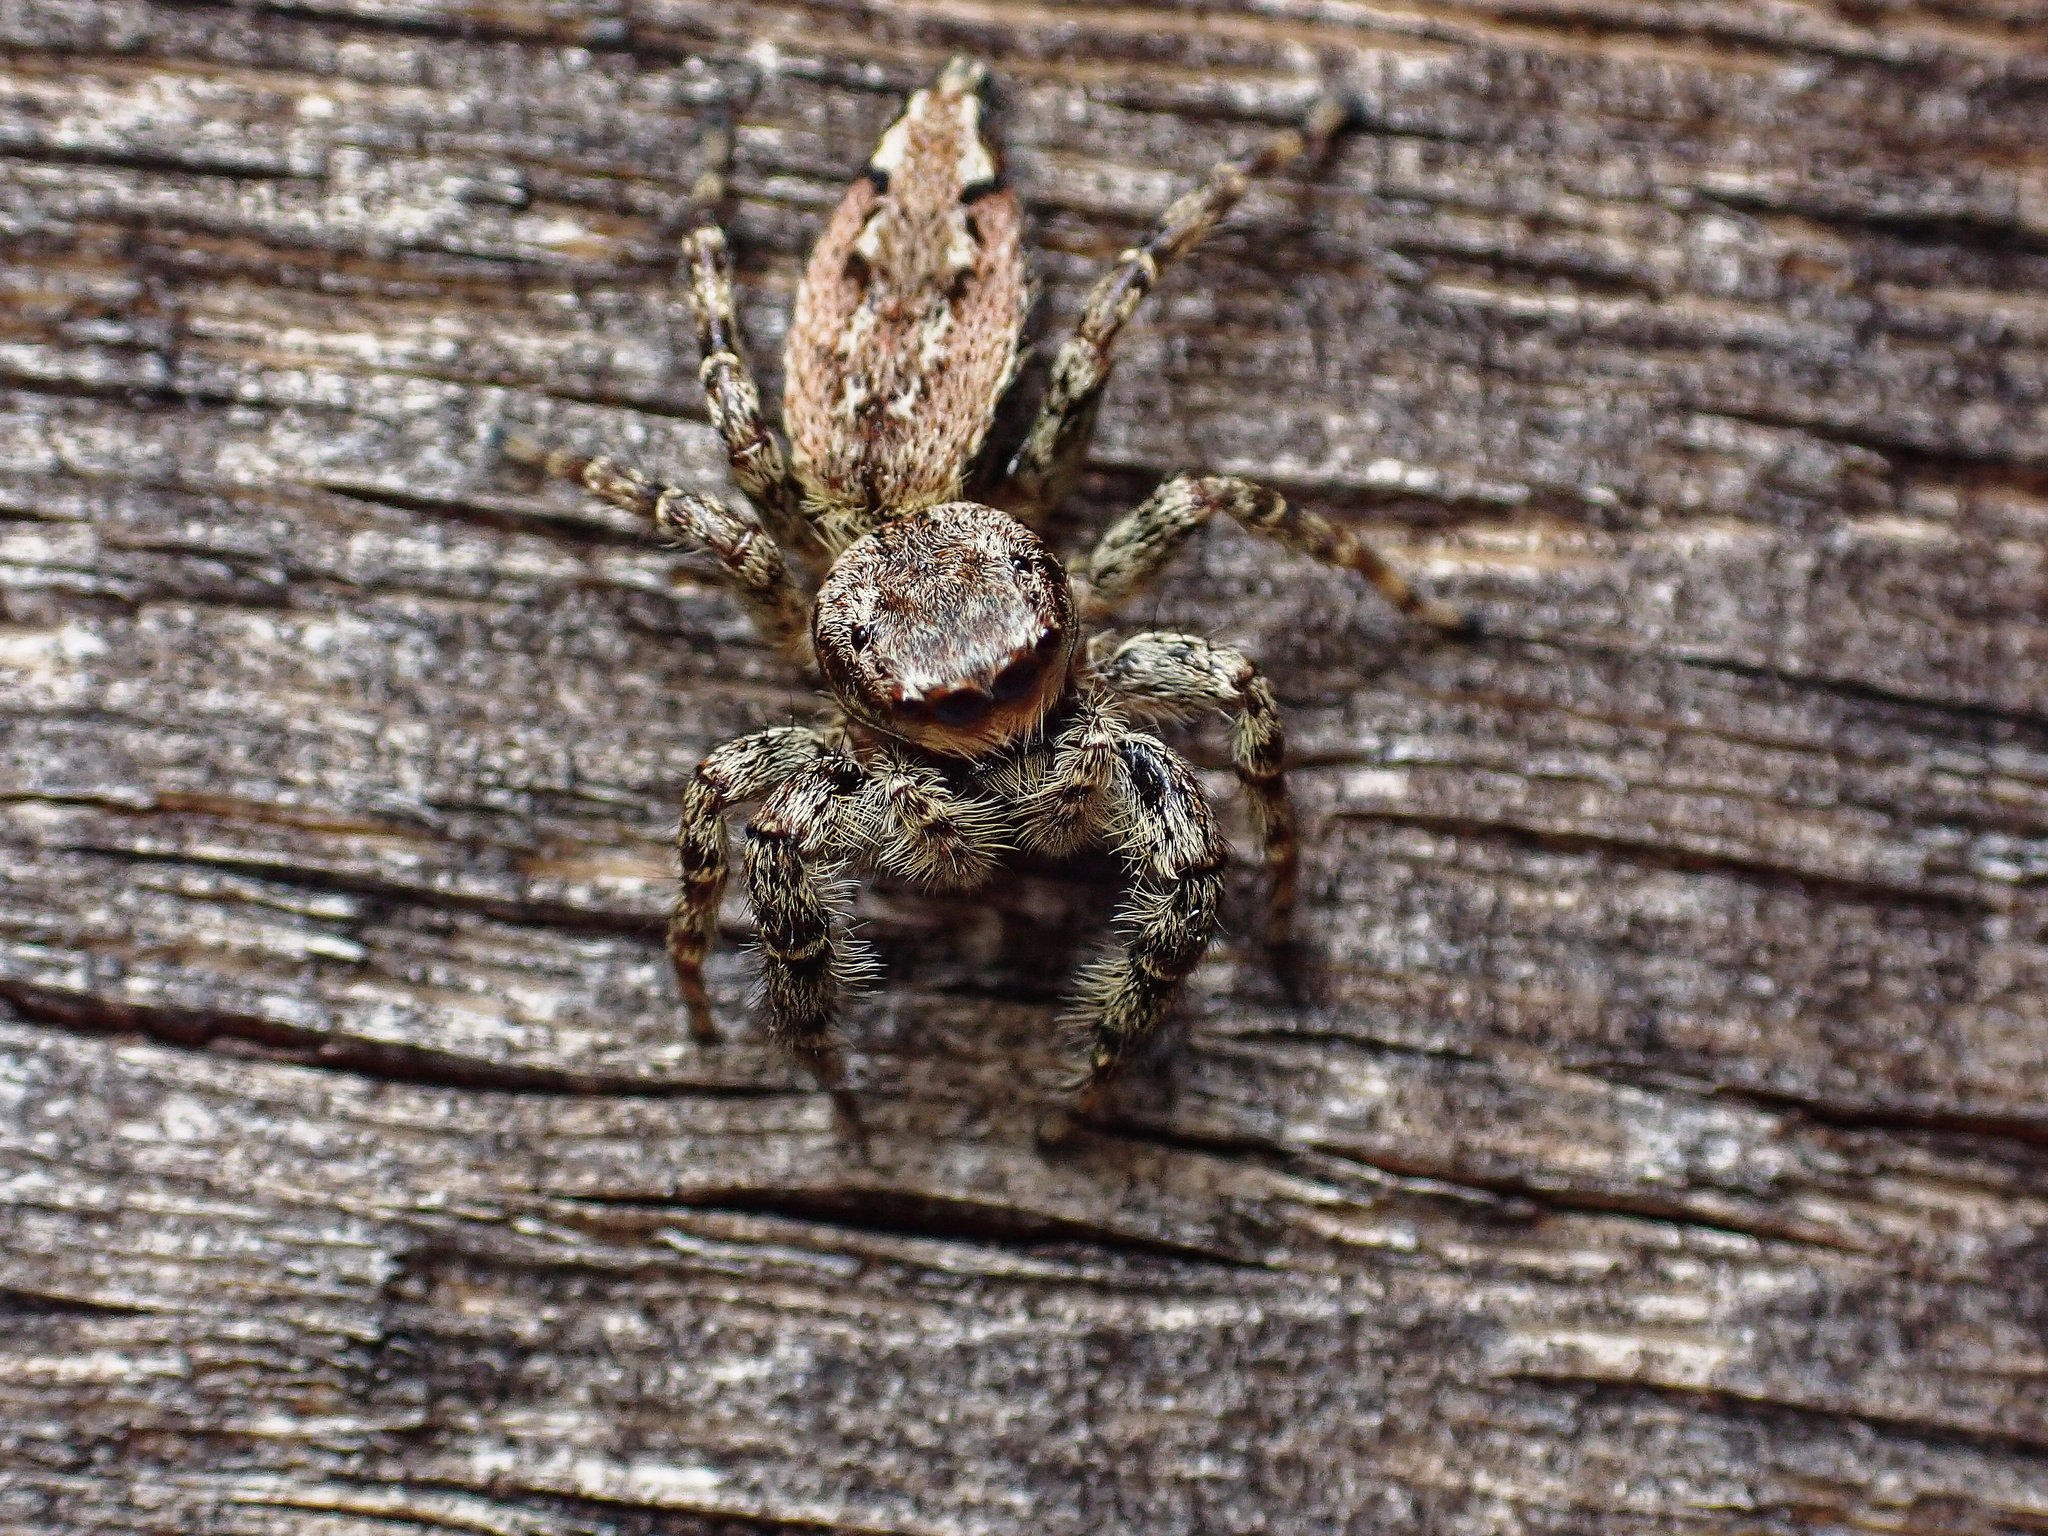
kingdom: Animalia
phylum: Arthropoda
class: Arachnida
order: Araneae
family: Salticidae
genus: Marpissa
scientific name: Marpissa muscosa
